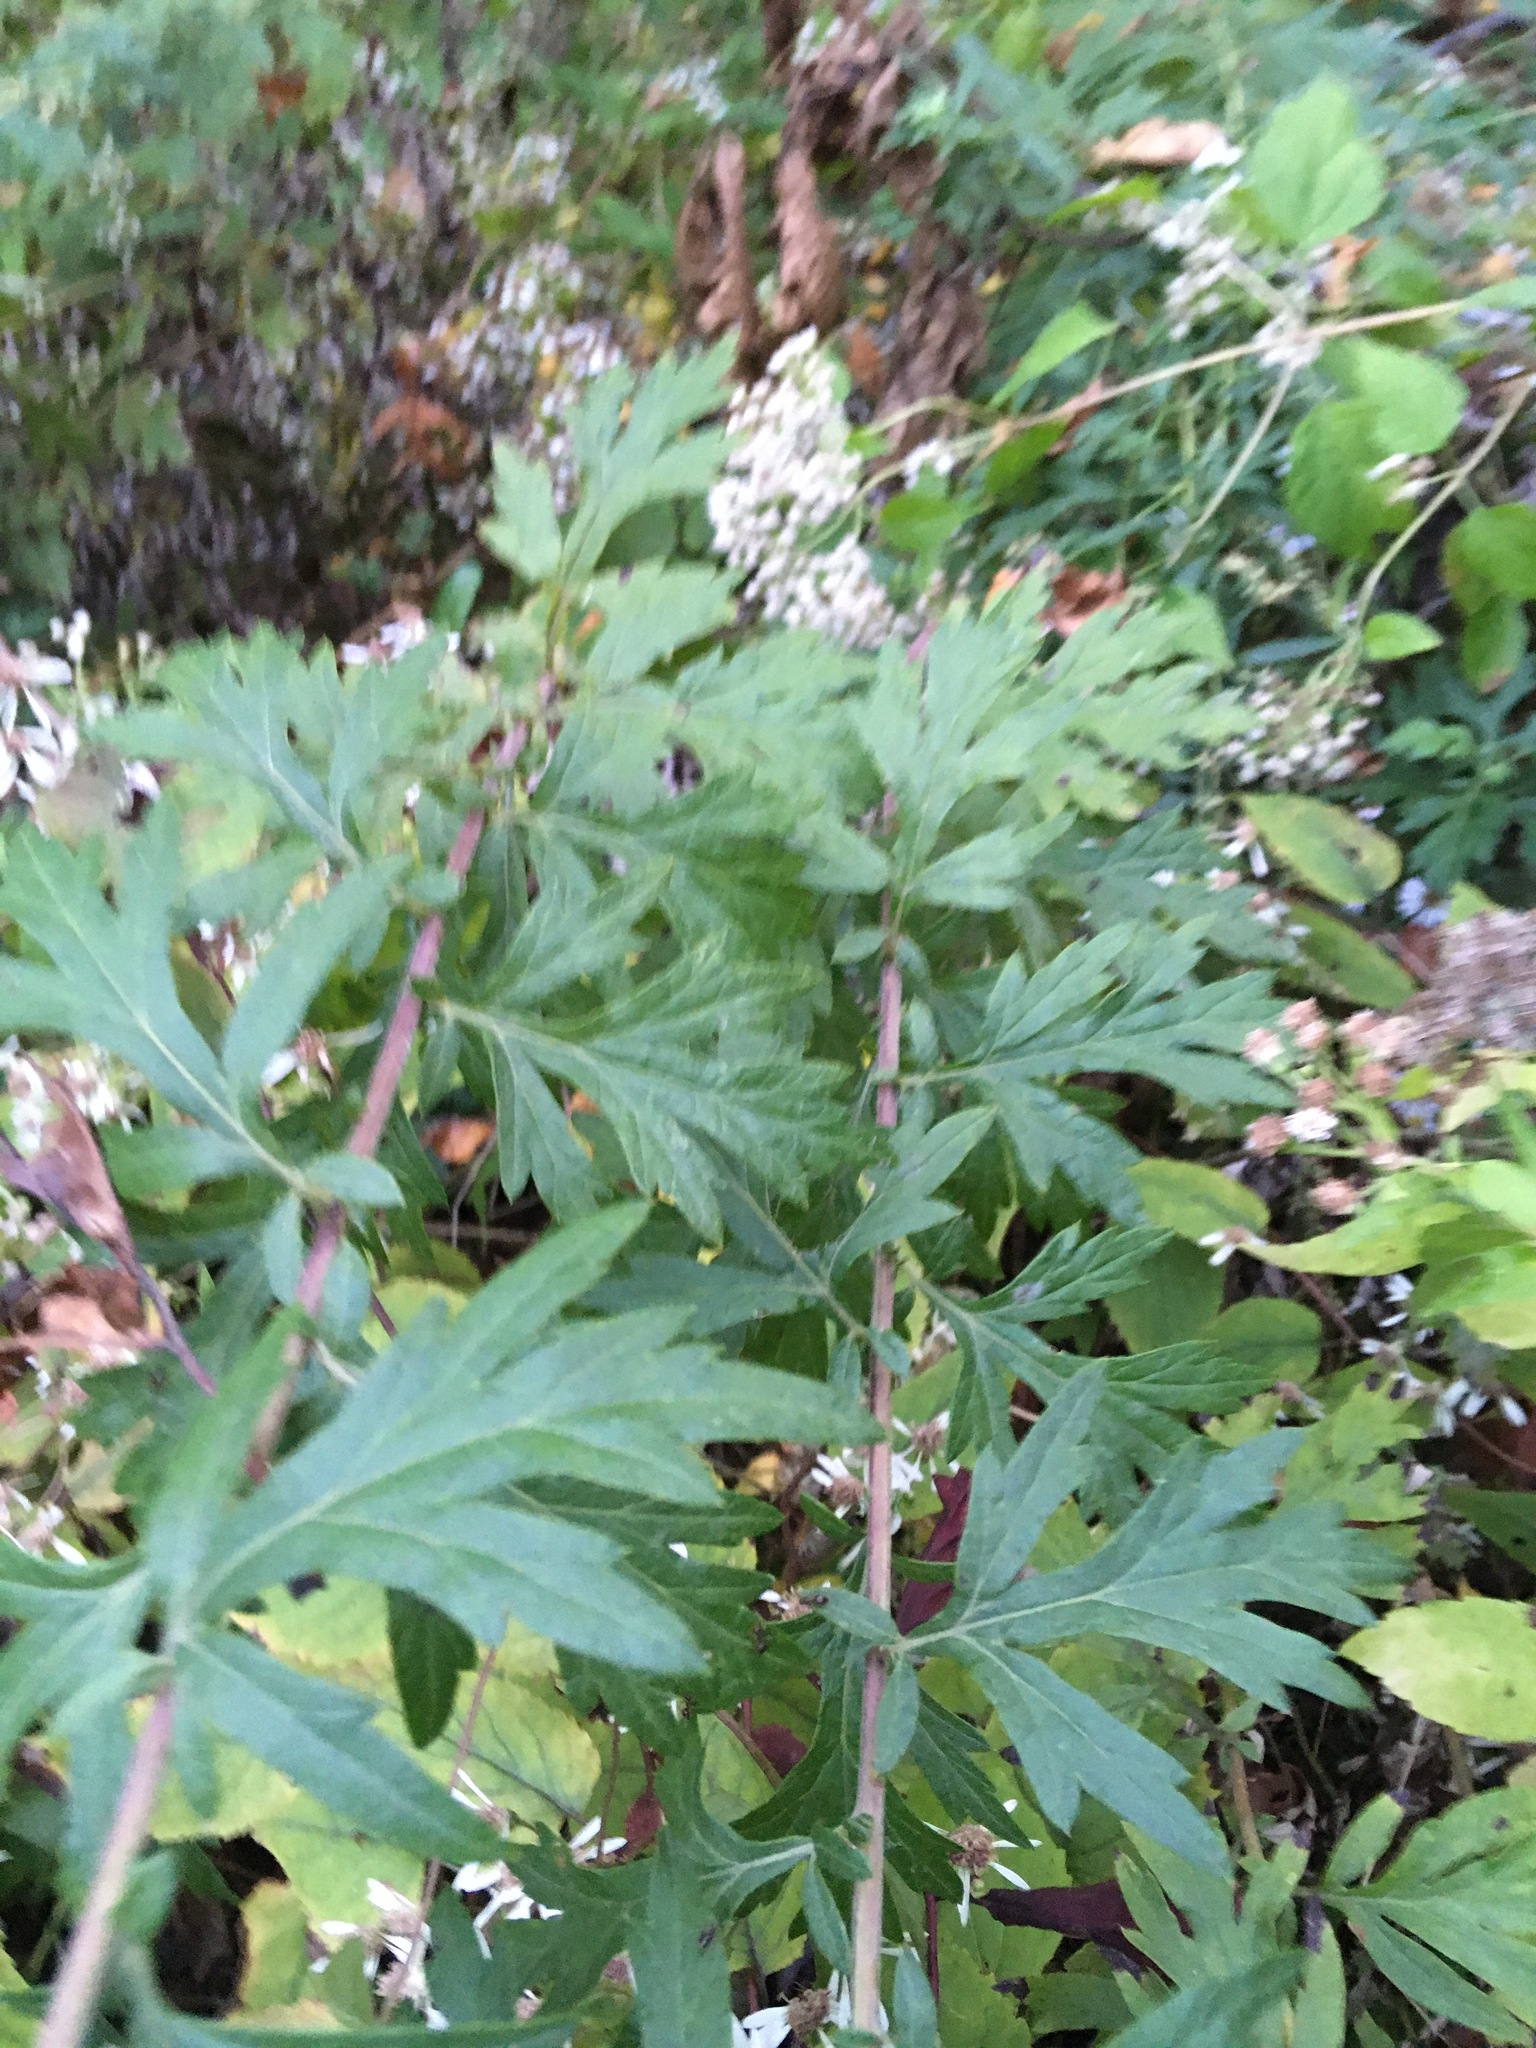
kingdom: Plantae
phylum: Tracheophyta
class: Magnoliopsida
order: Asterales
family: Asteraceae
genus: Artemisia
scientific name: Artemisia vulgaris
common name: Mugwort
